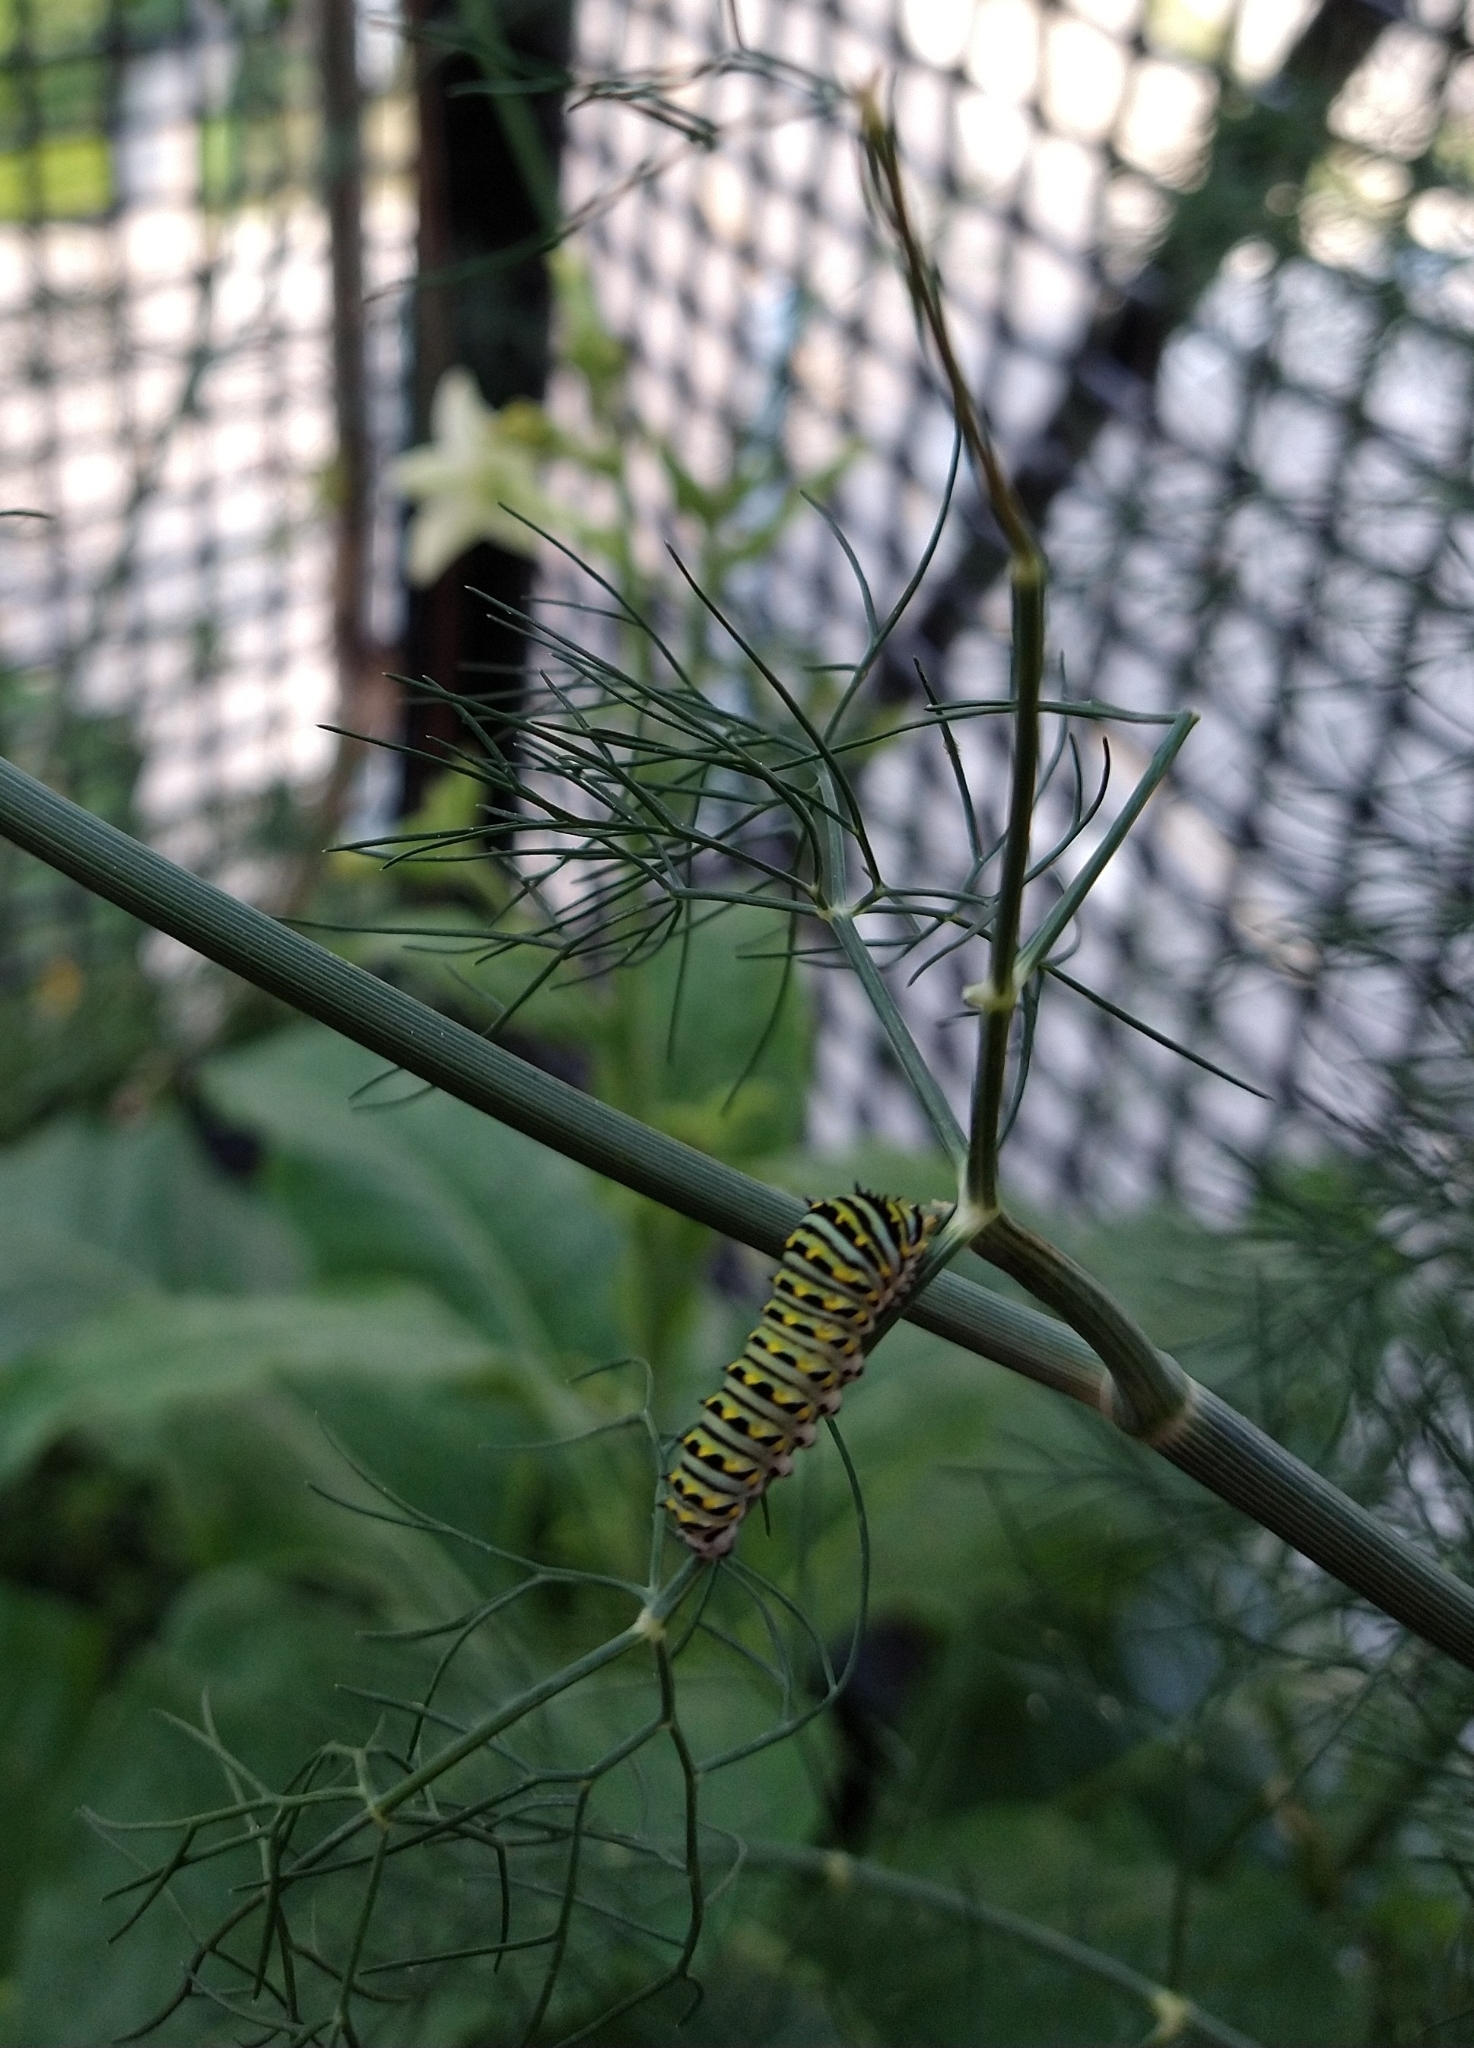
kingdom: Animalia
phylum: Arthropoda
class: Insecta
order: Lepidoptera
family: Papilionidae
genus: Papilio
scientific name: Papilio polyxenes
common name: Black swallowtail
